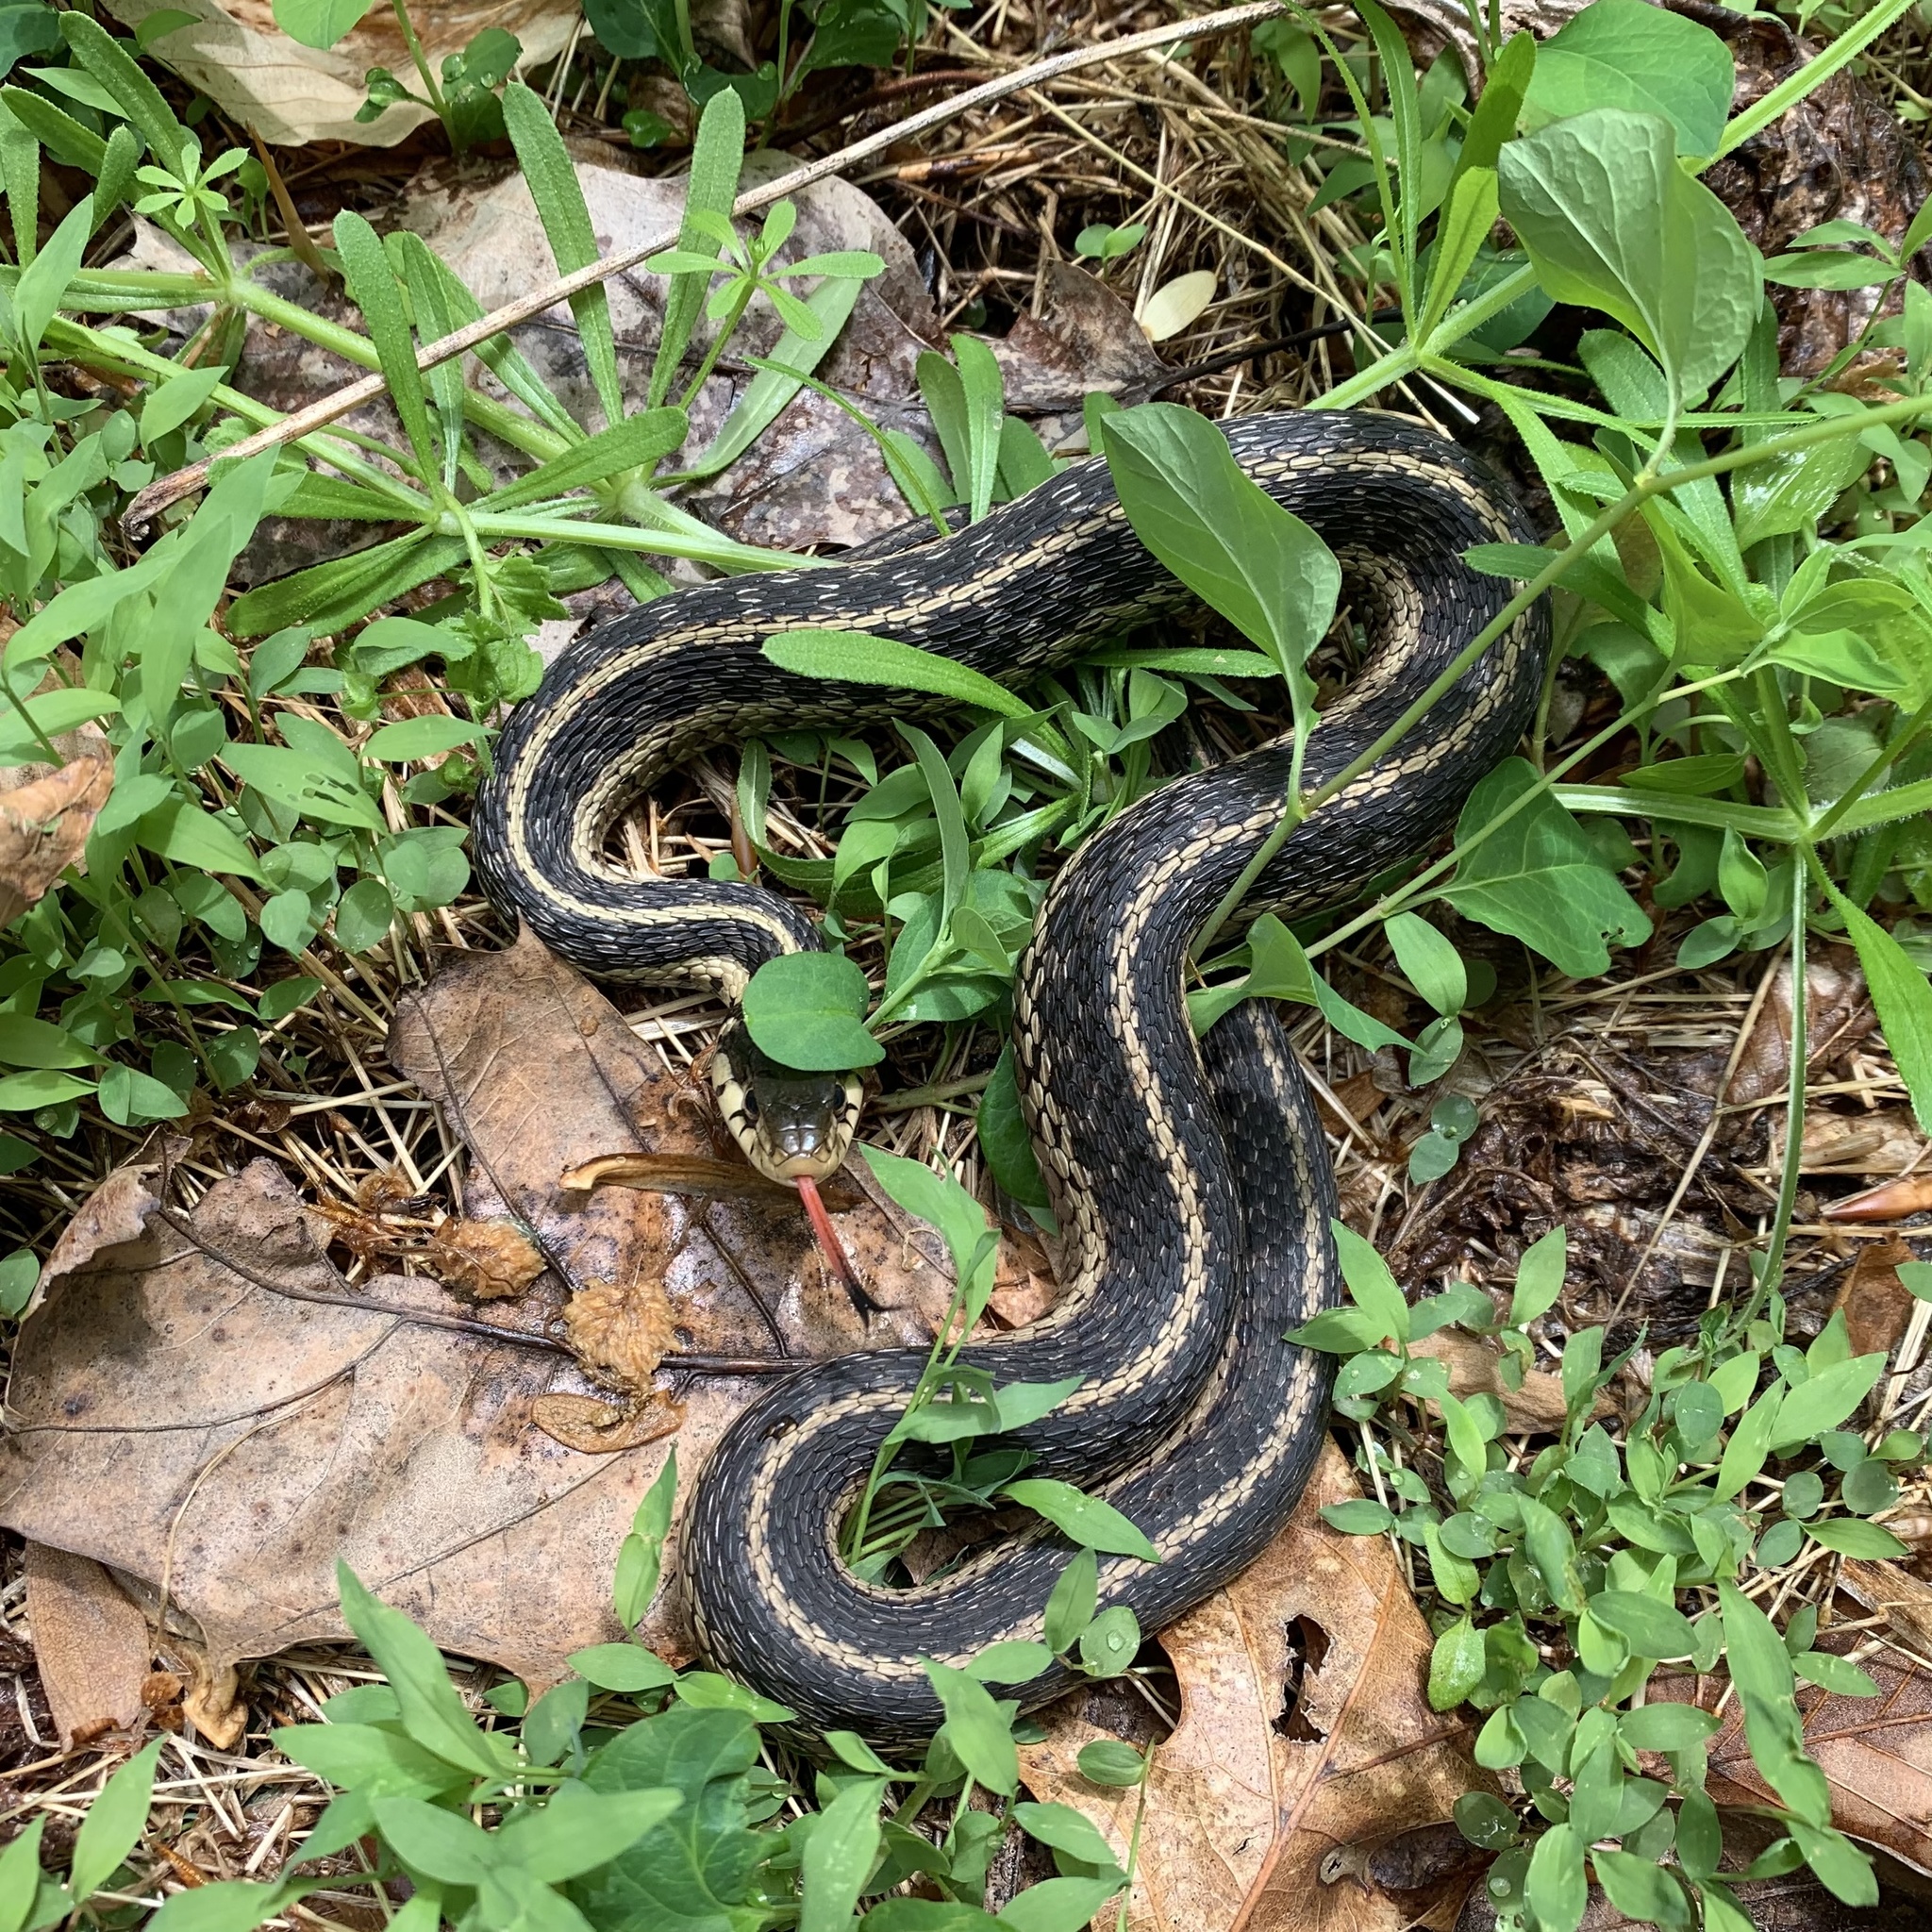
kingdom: Animalia
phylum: Chordata
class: Squamata
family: Colubridae
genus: Thamnophis
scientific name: Thamnophis sirtalis
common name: Common garter snake
